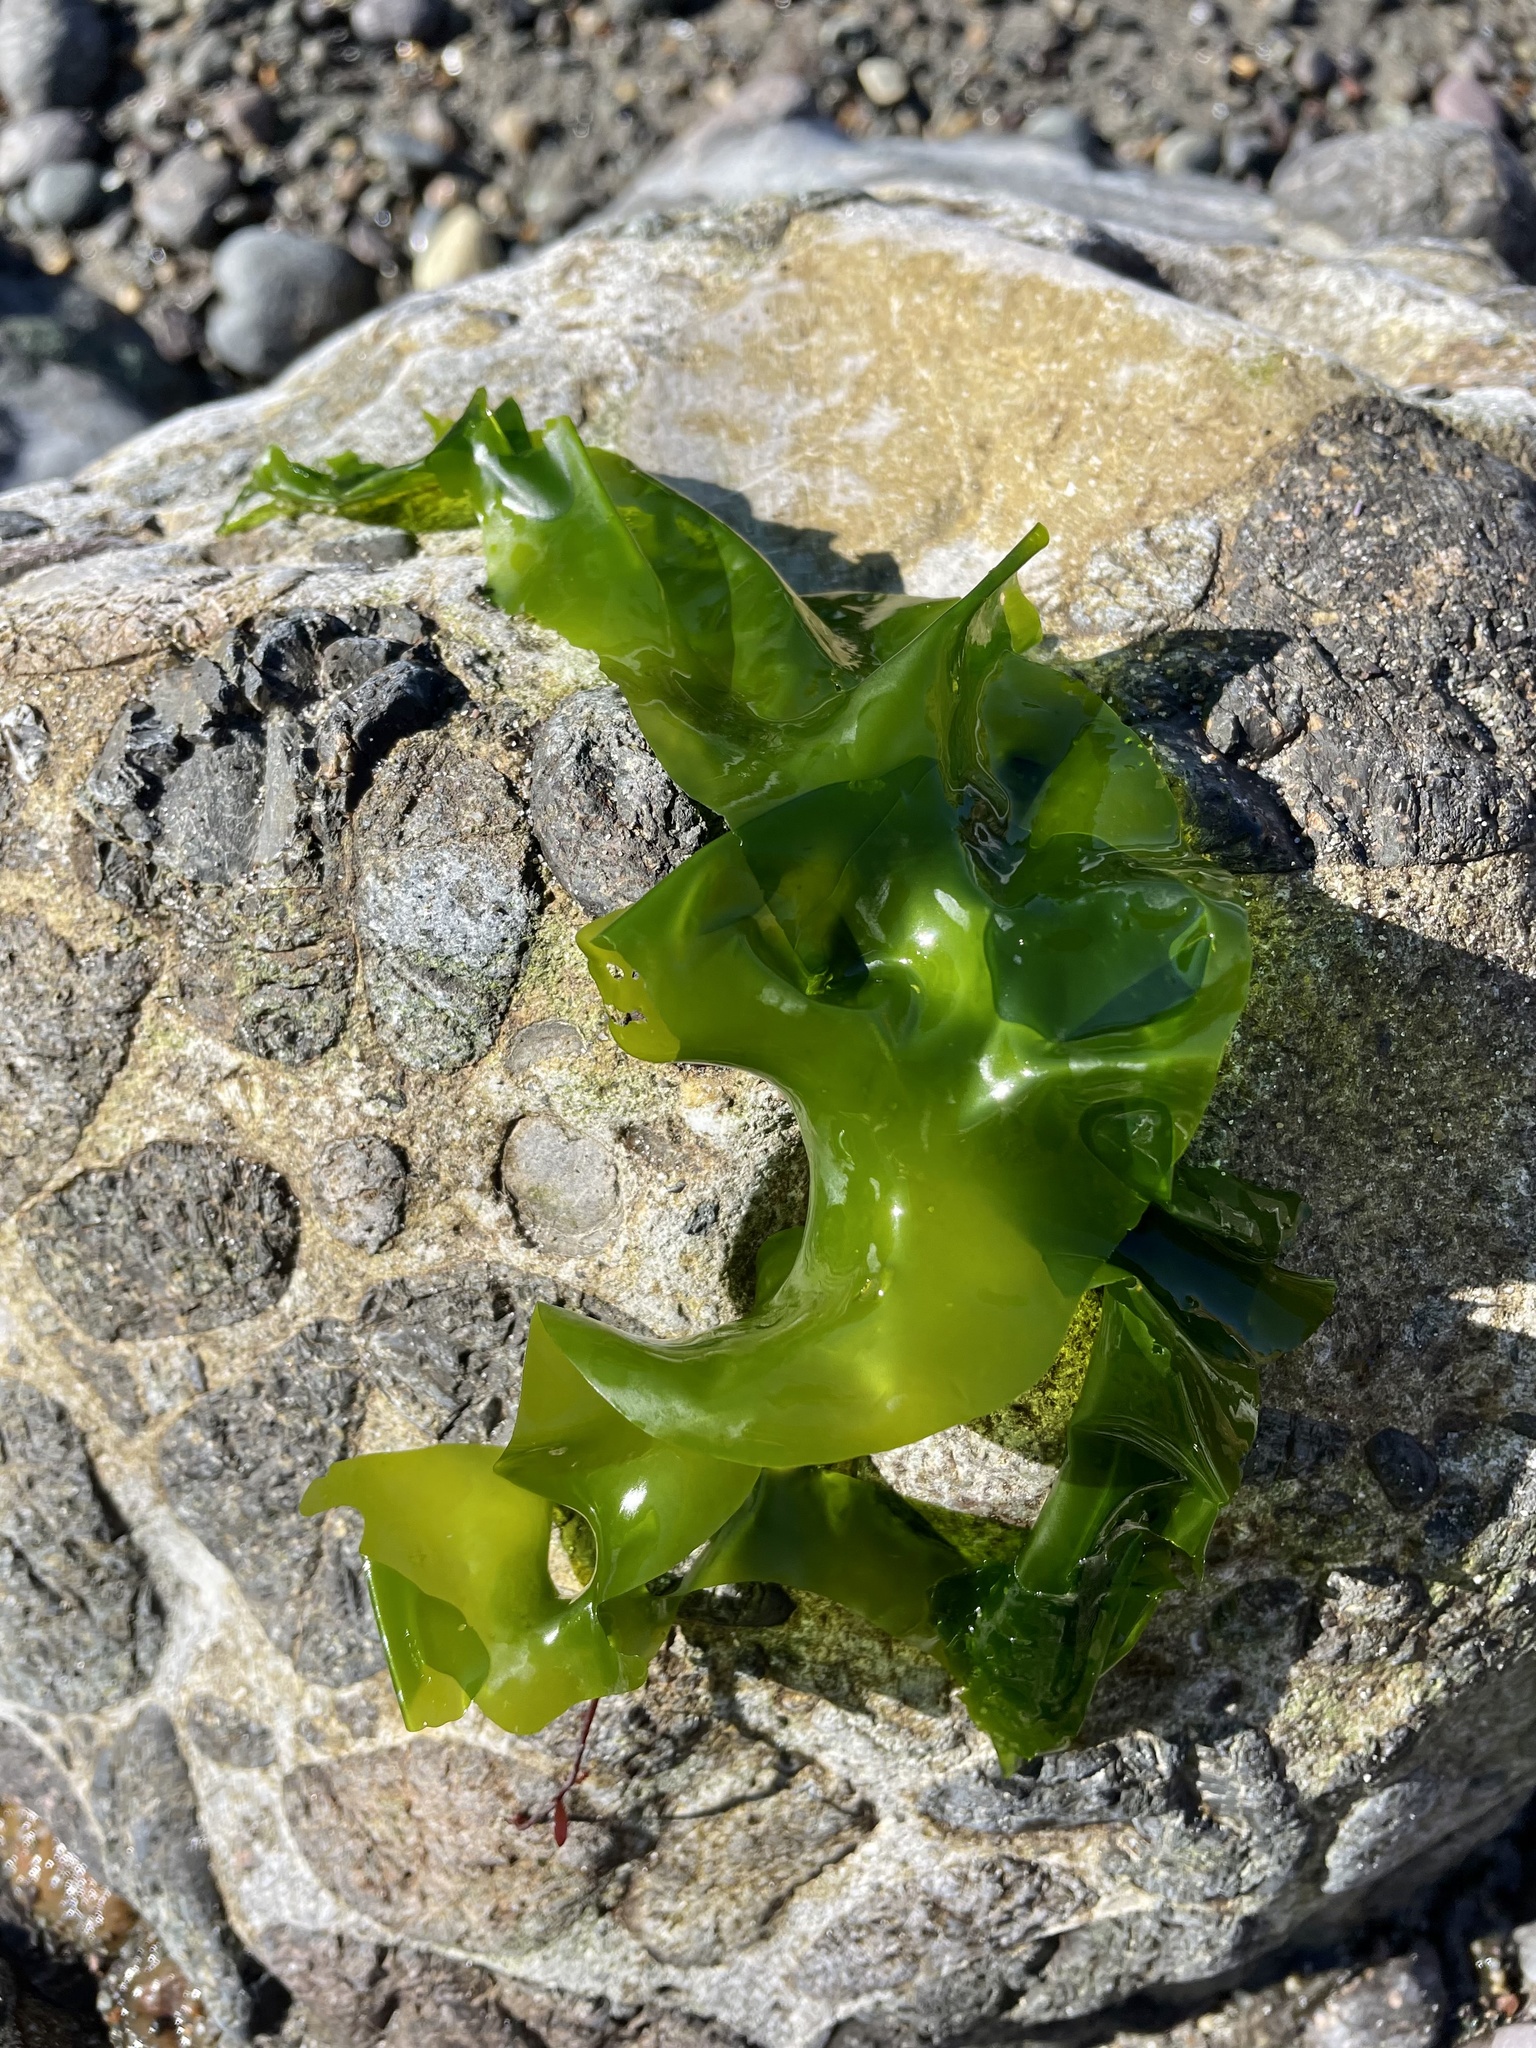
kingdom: Plantae
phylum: Chlorophyta
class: Ulvophyceae
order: Ulvales
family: Ulvaceae
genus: Ulva
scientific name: Ulva lactuca
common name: Sea lettuce
